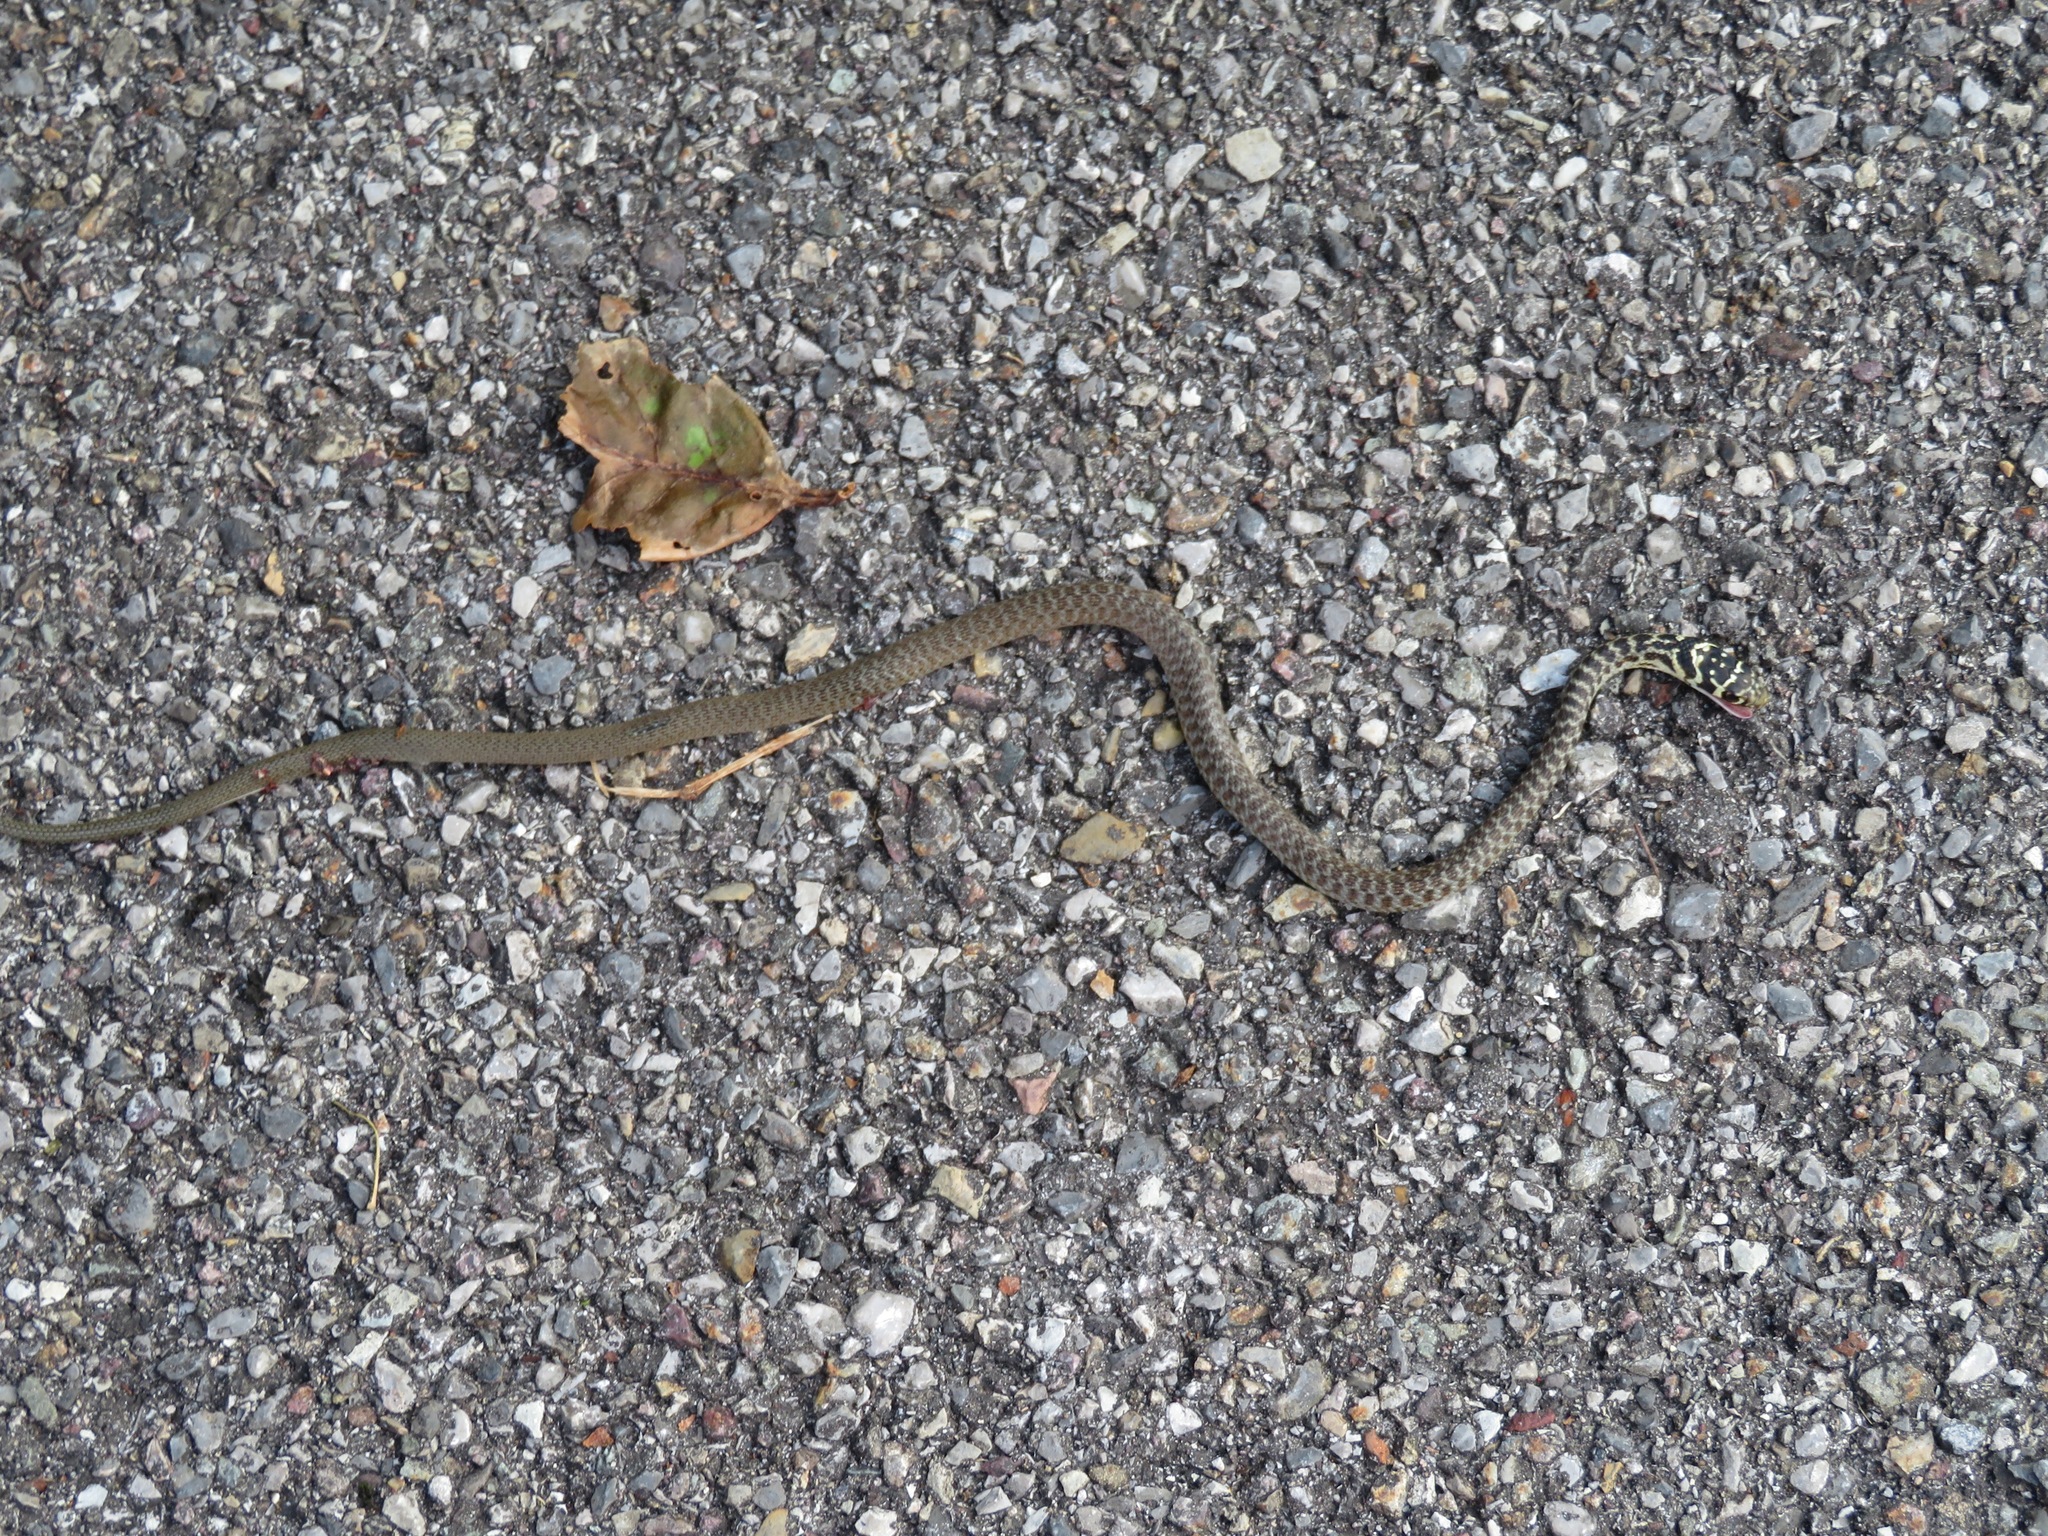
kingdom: Animalia
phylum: Chordata
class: Squamata
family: Colubridae
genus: Hierophis
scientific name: Hierophis viridiflavus
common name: Green whip snake
